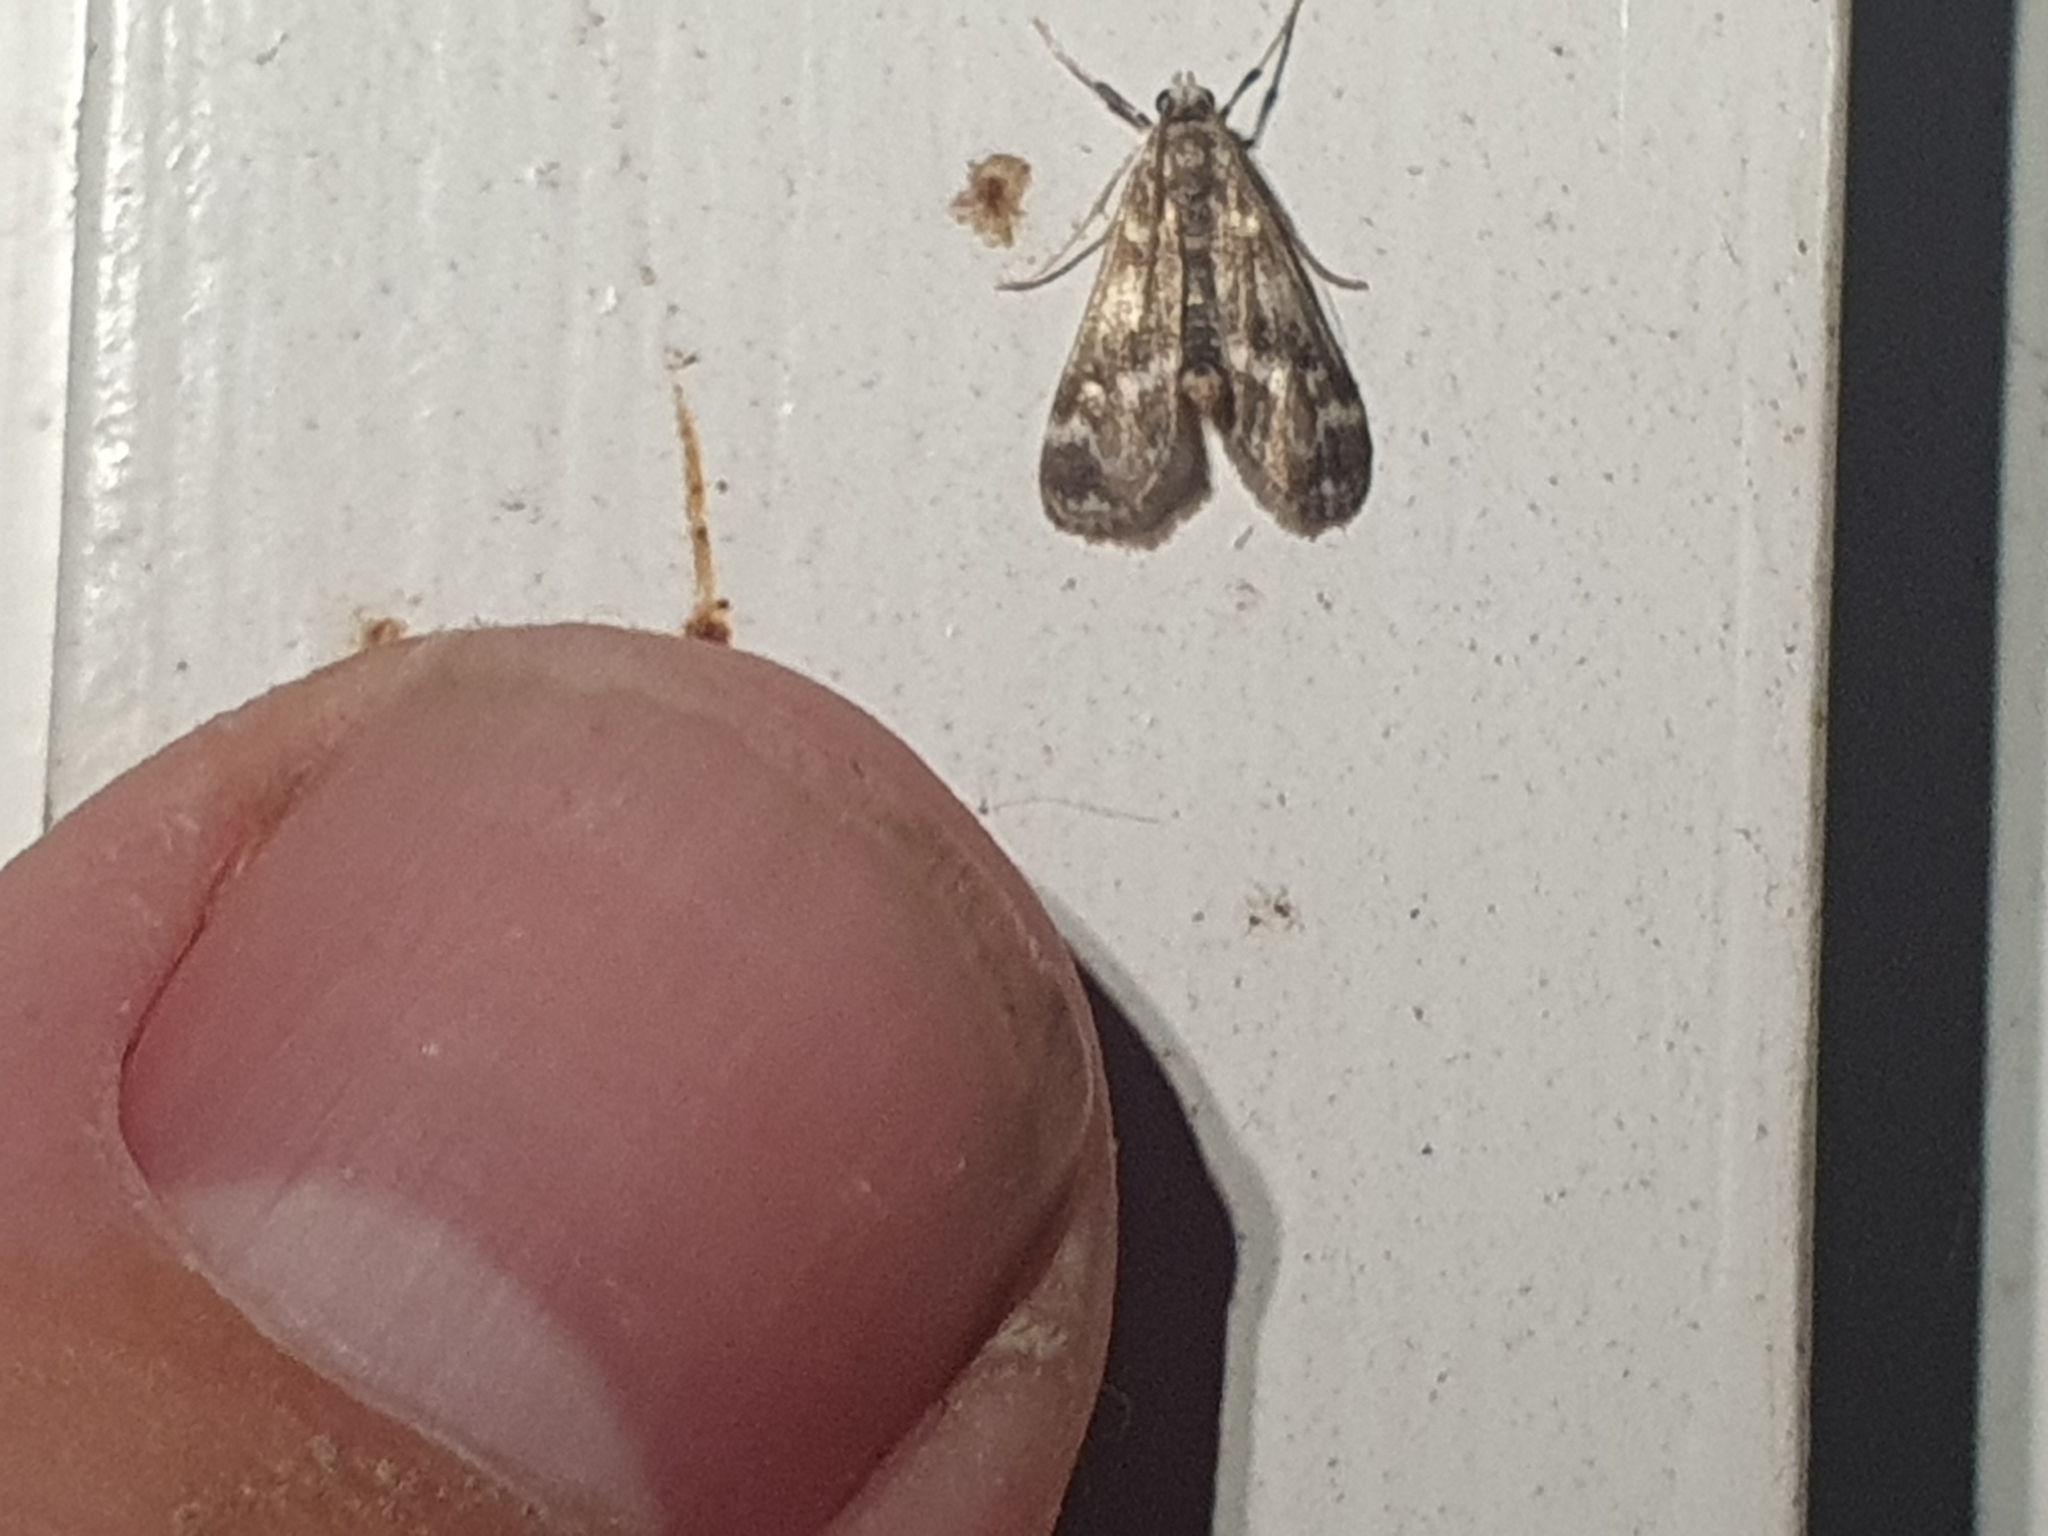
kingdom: Animalia
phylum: Arthropoda
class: Insecta
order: Lepidoptera
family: Crambidae
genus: Hygraula
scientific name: Hygraula nitens
